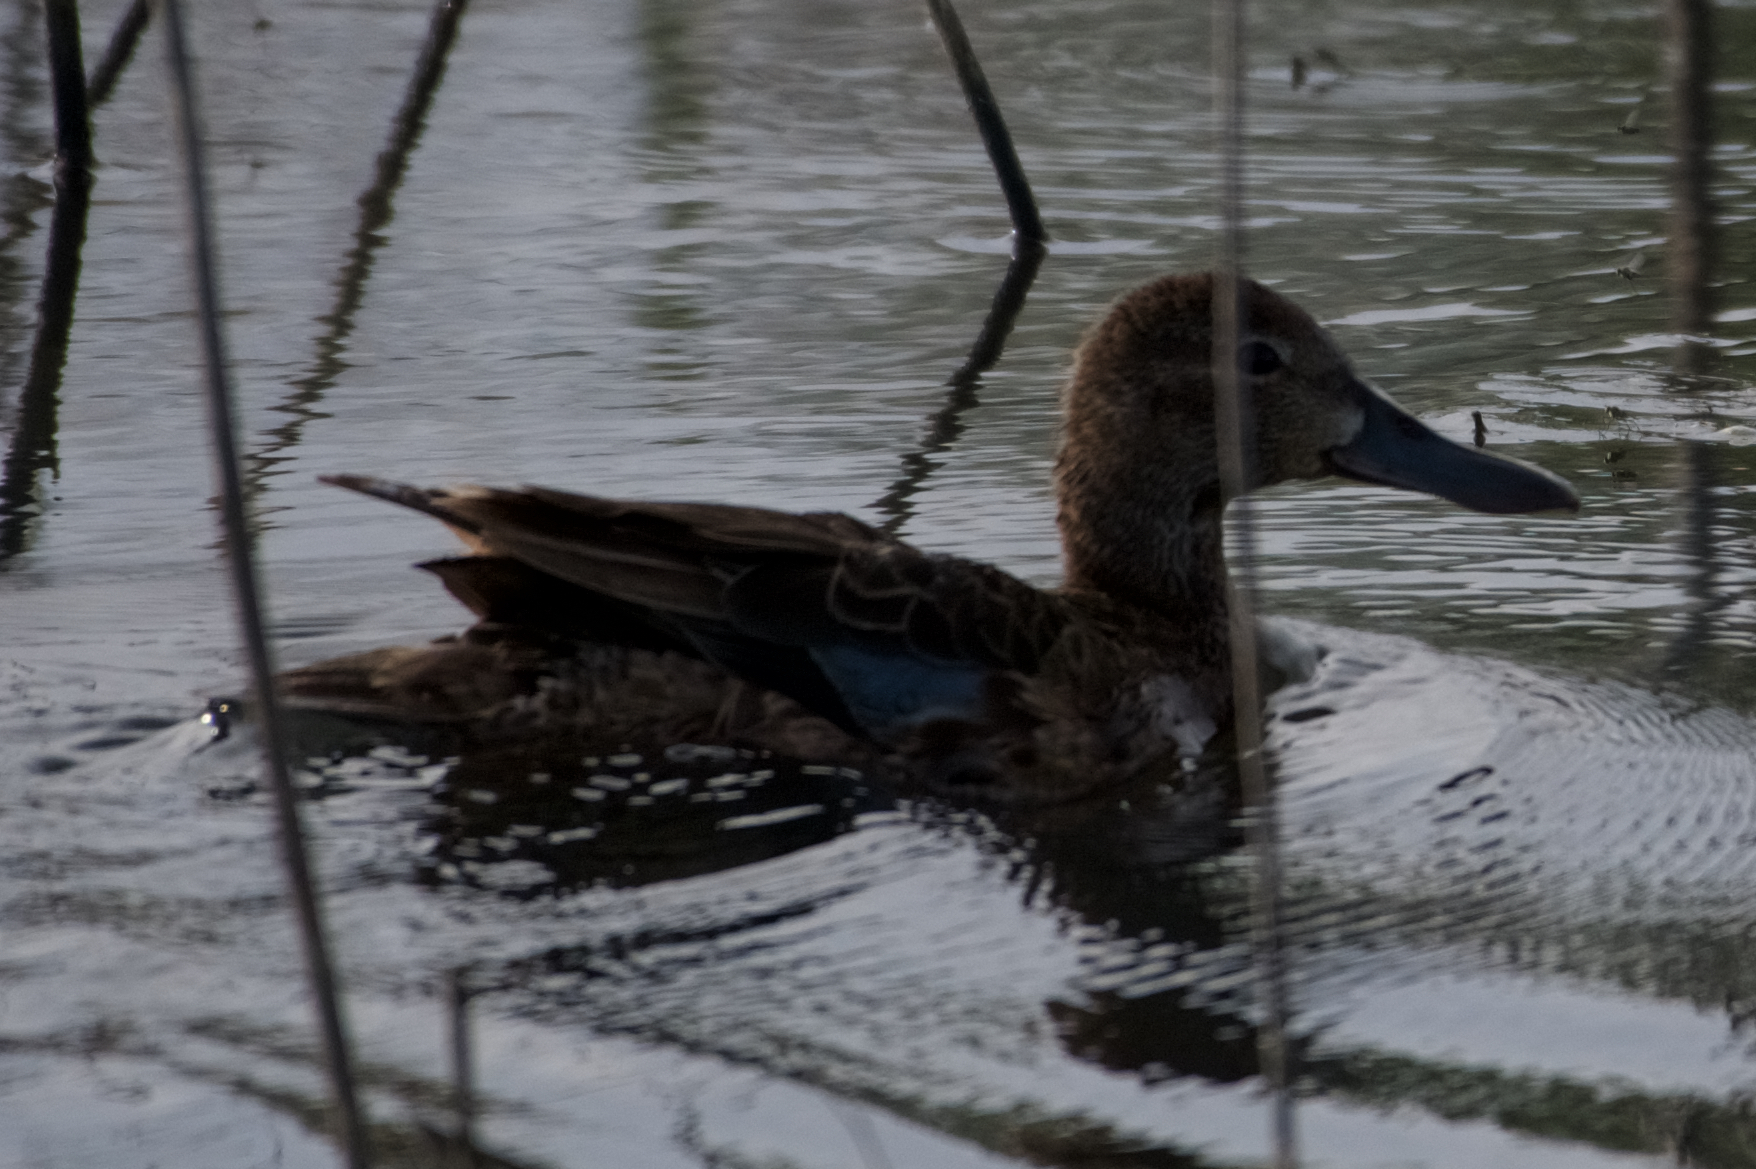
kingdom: Animalia
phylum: Chordata
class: Aves
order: Anseriformes
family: Anatidae
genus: Spatula
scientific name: Spatula cyanoptera
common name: Cinnamon teal
